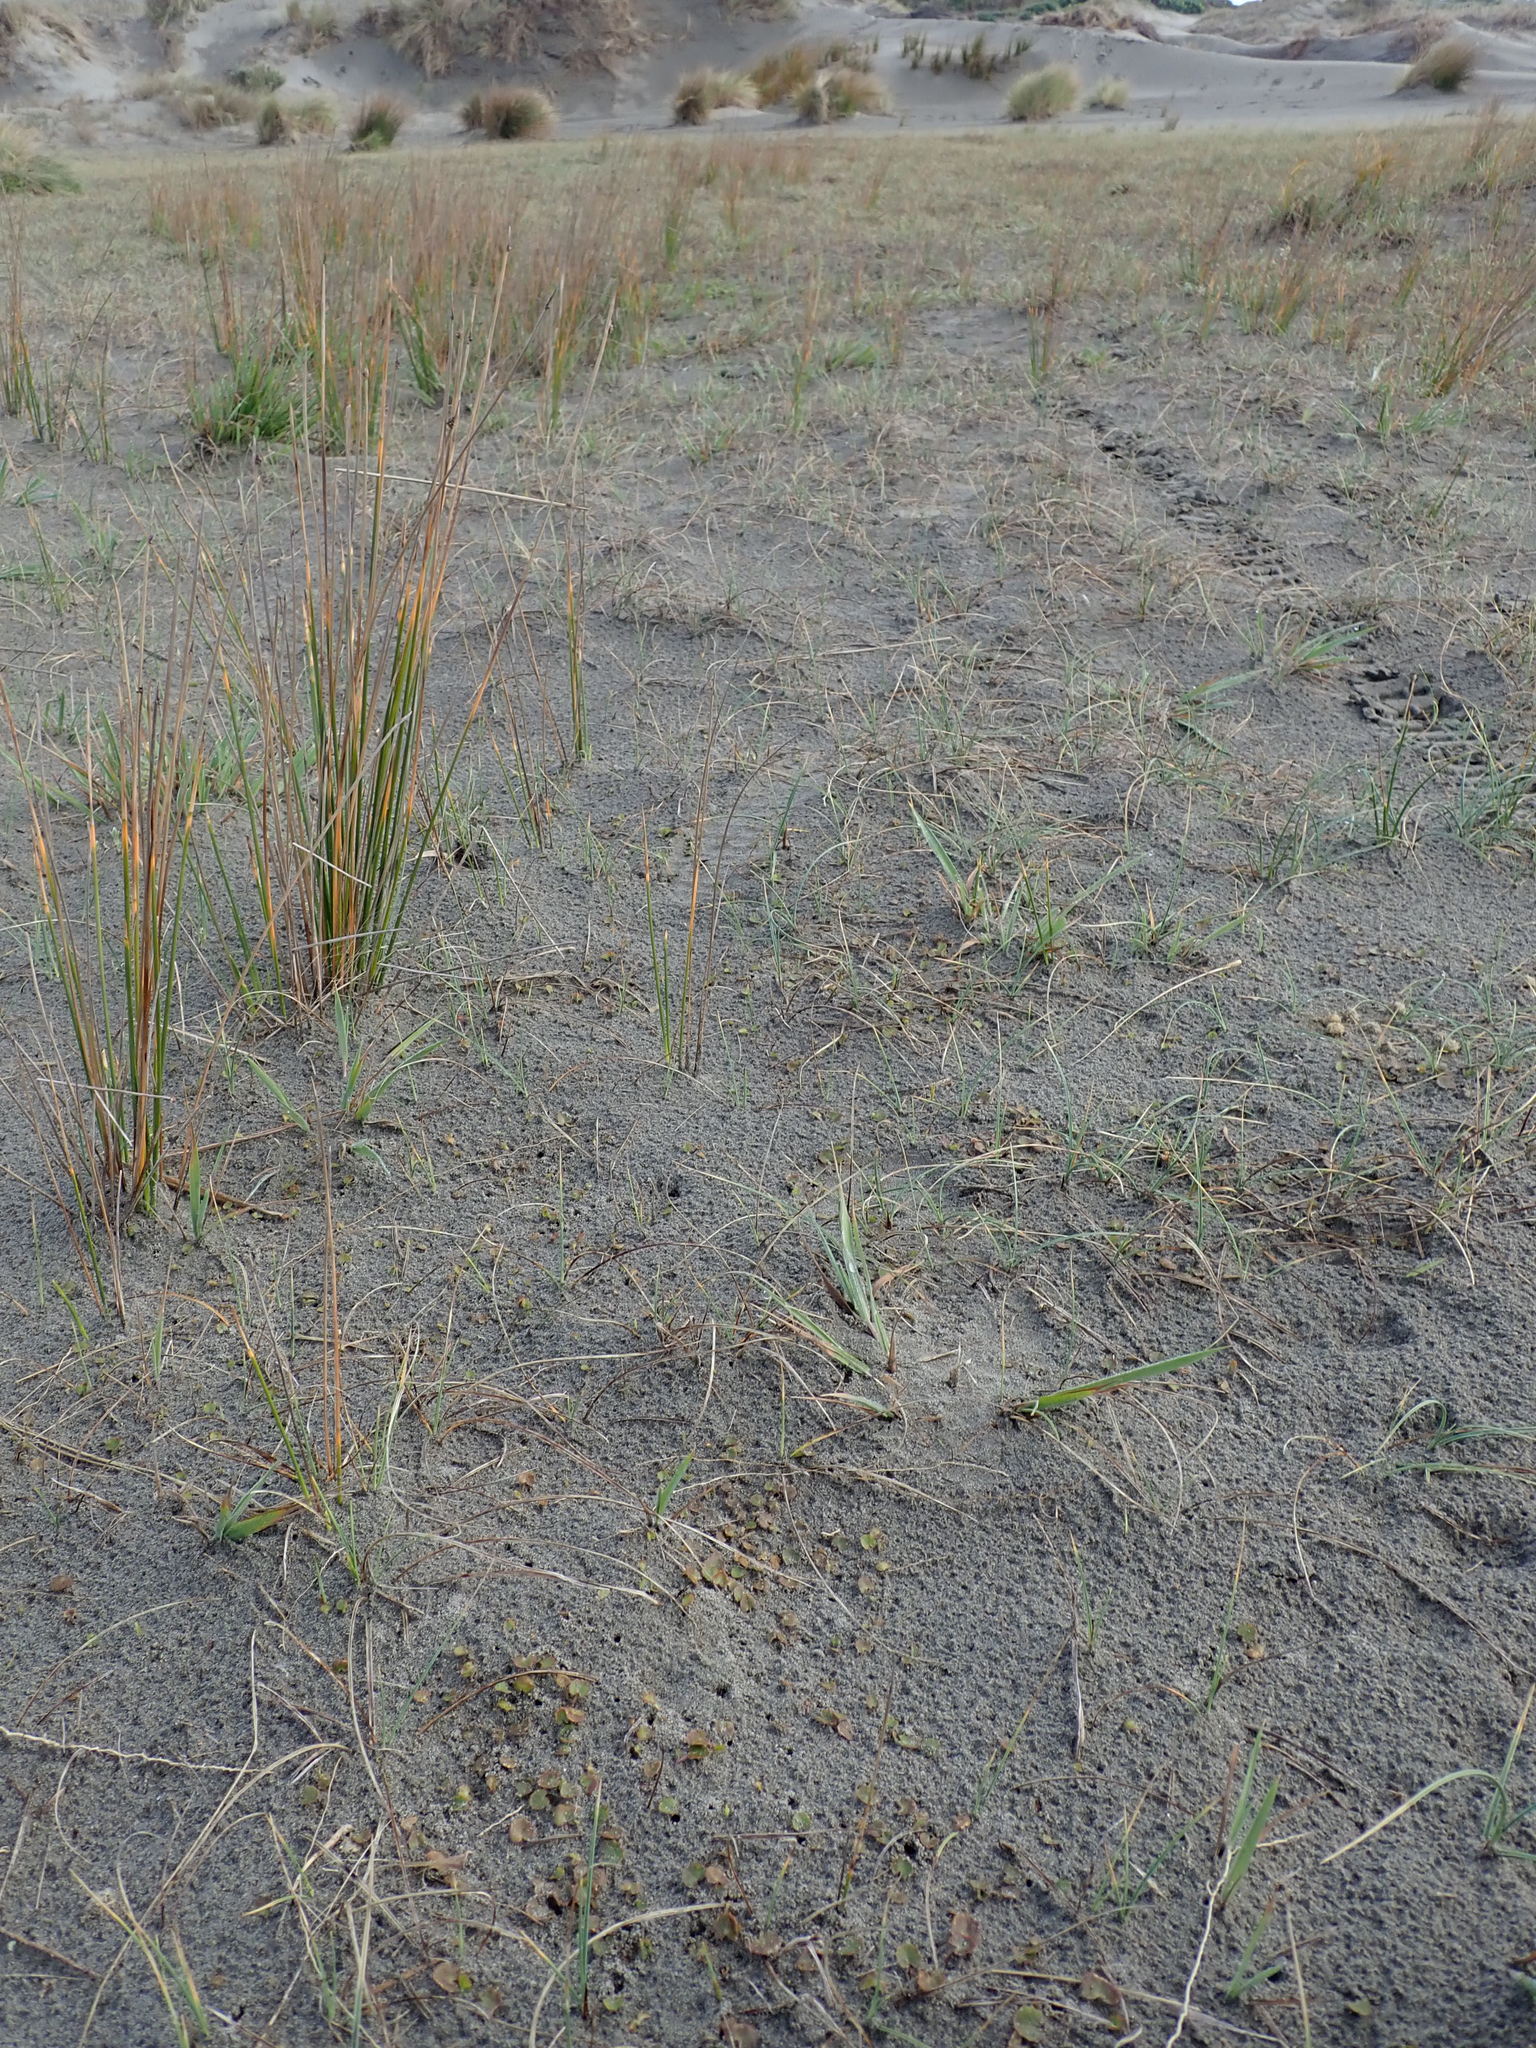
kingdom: Plantae
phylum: Tracheophyta
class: Magnoliopsida
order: Apiales
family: Apiaceae
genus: Centella
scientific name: Centella uniflora
